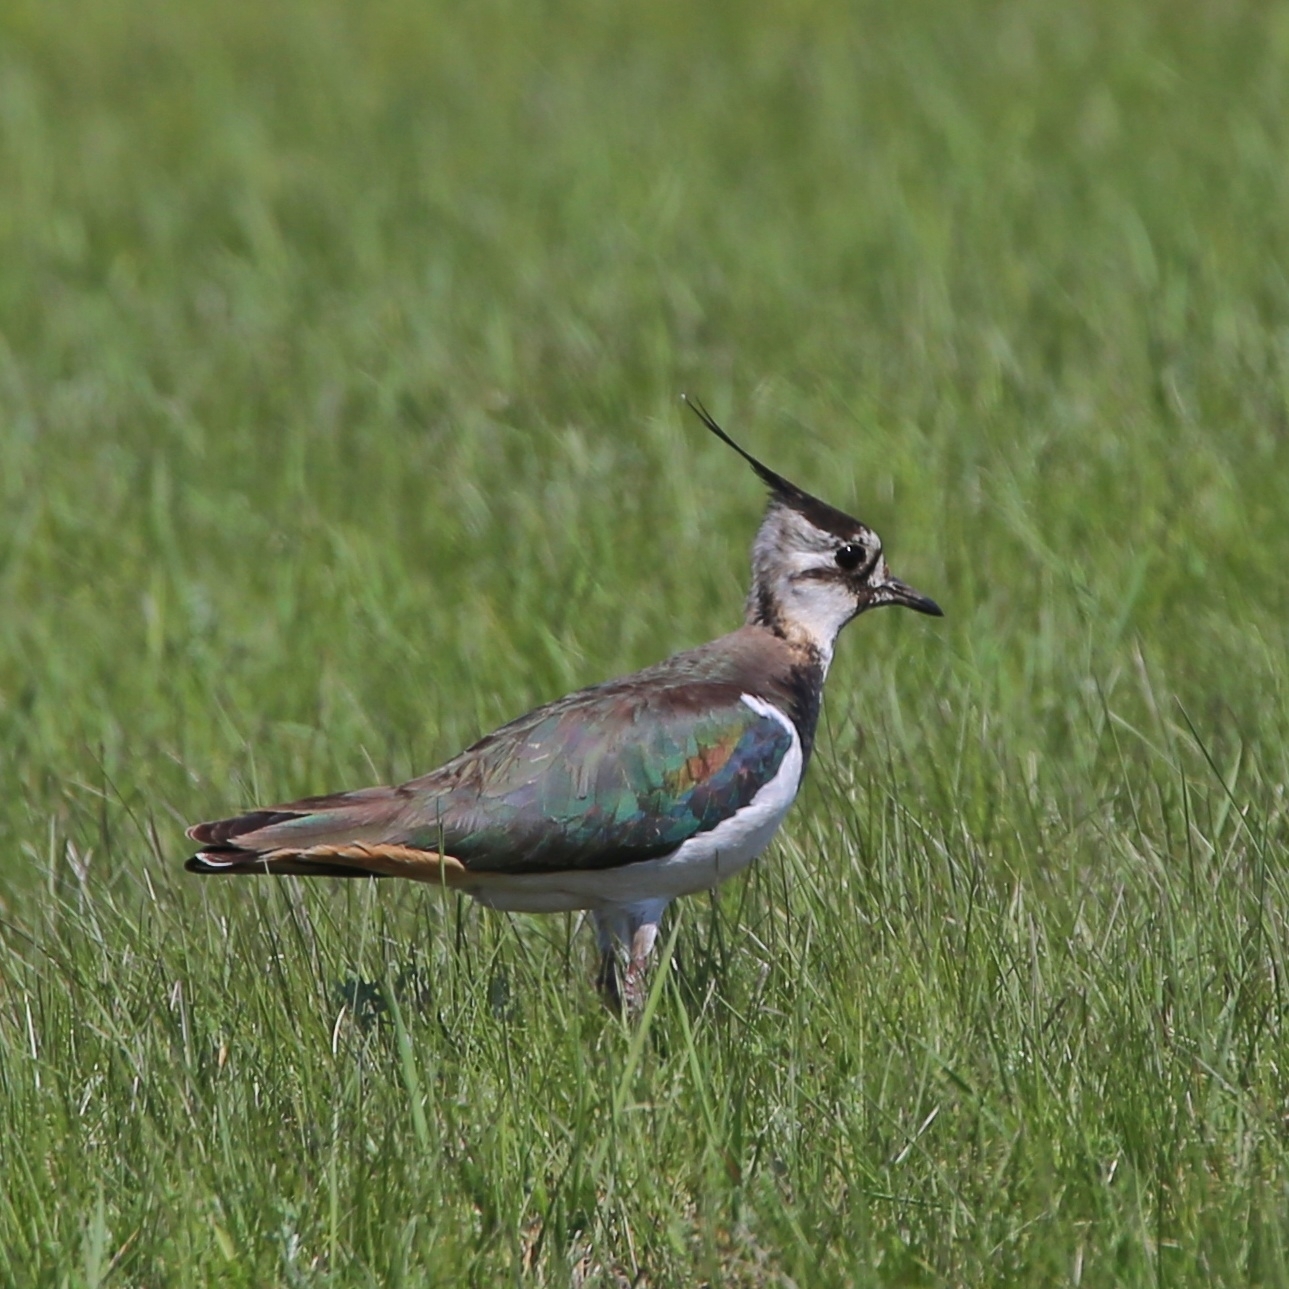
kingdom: Animalia
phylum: Chordata
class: Aves
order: Charadriiformes
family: Charadriidae
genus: Vanellus
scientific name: Vanellus vanellus
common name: Northern lapwing
